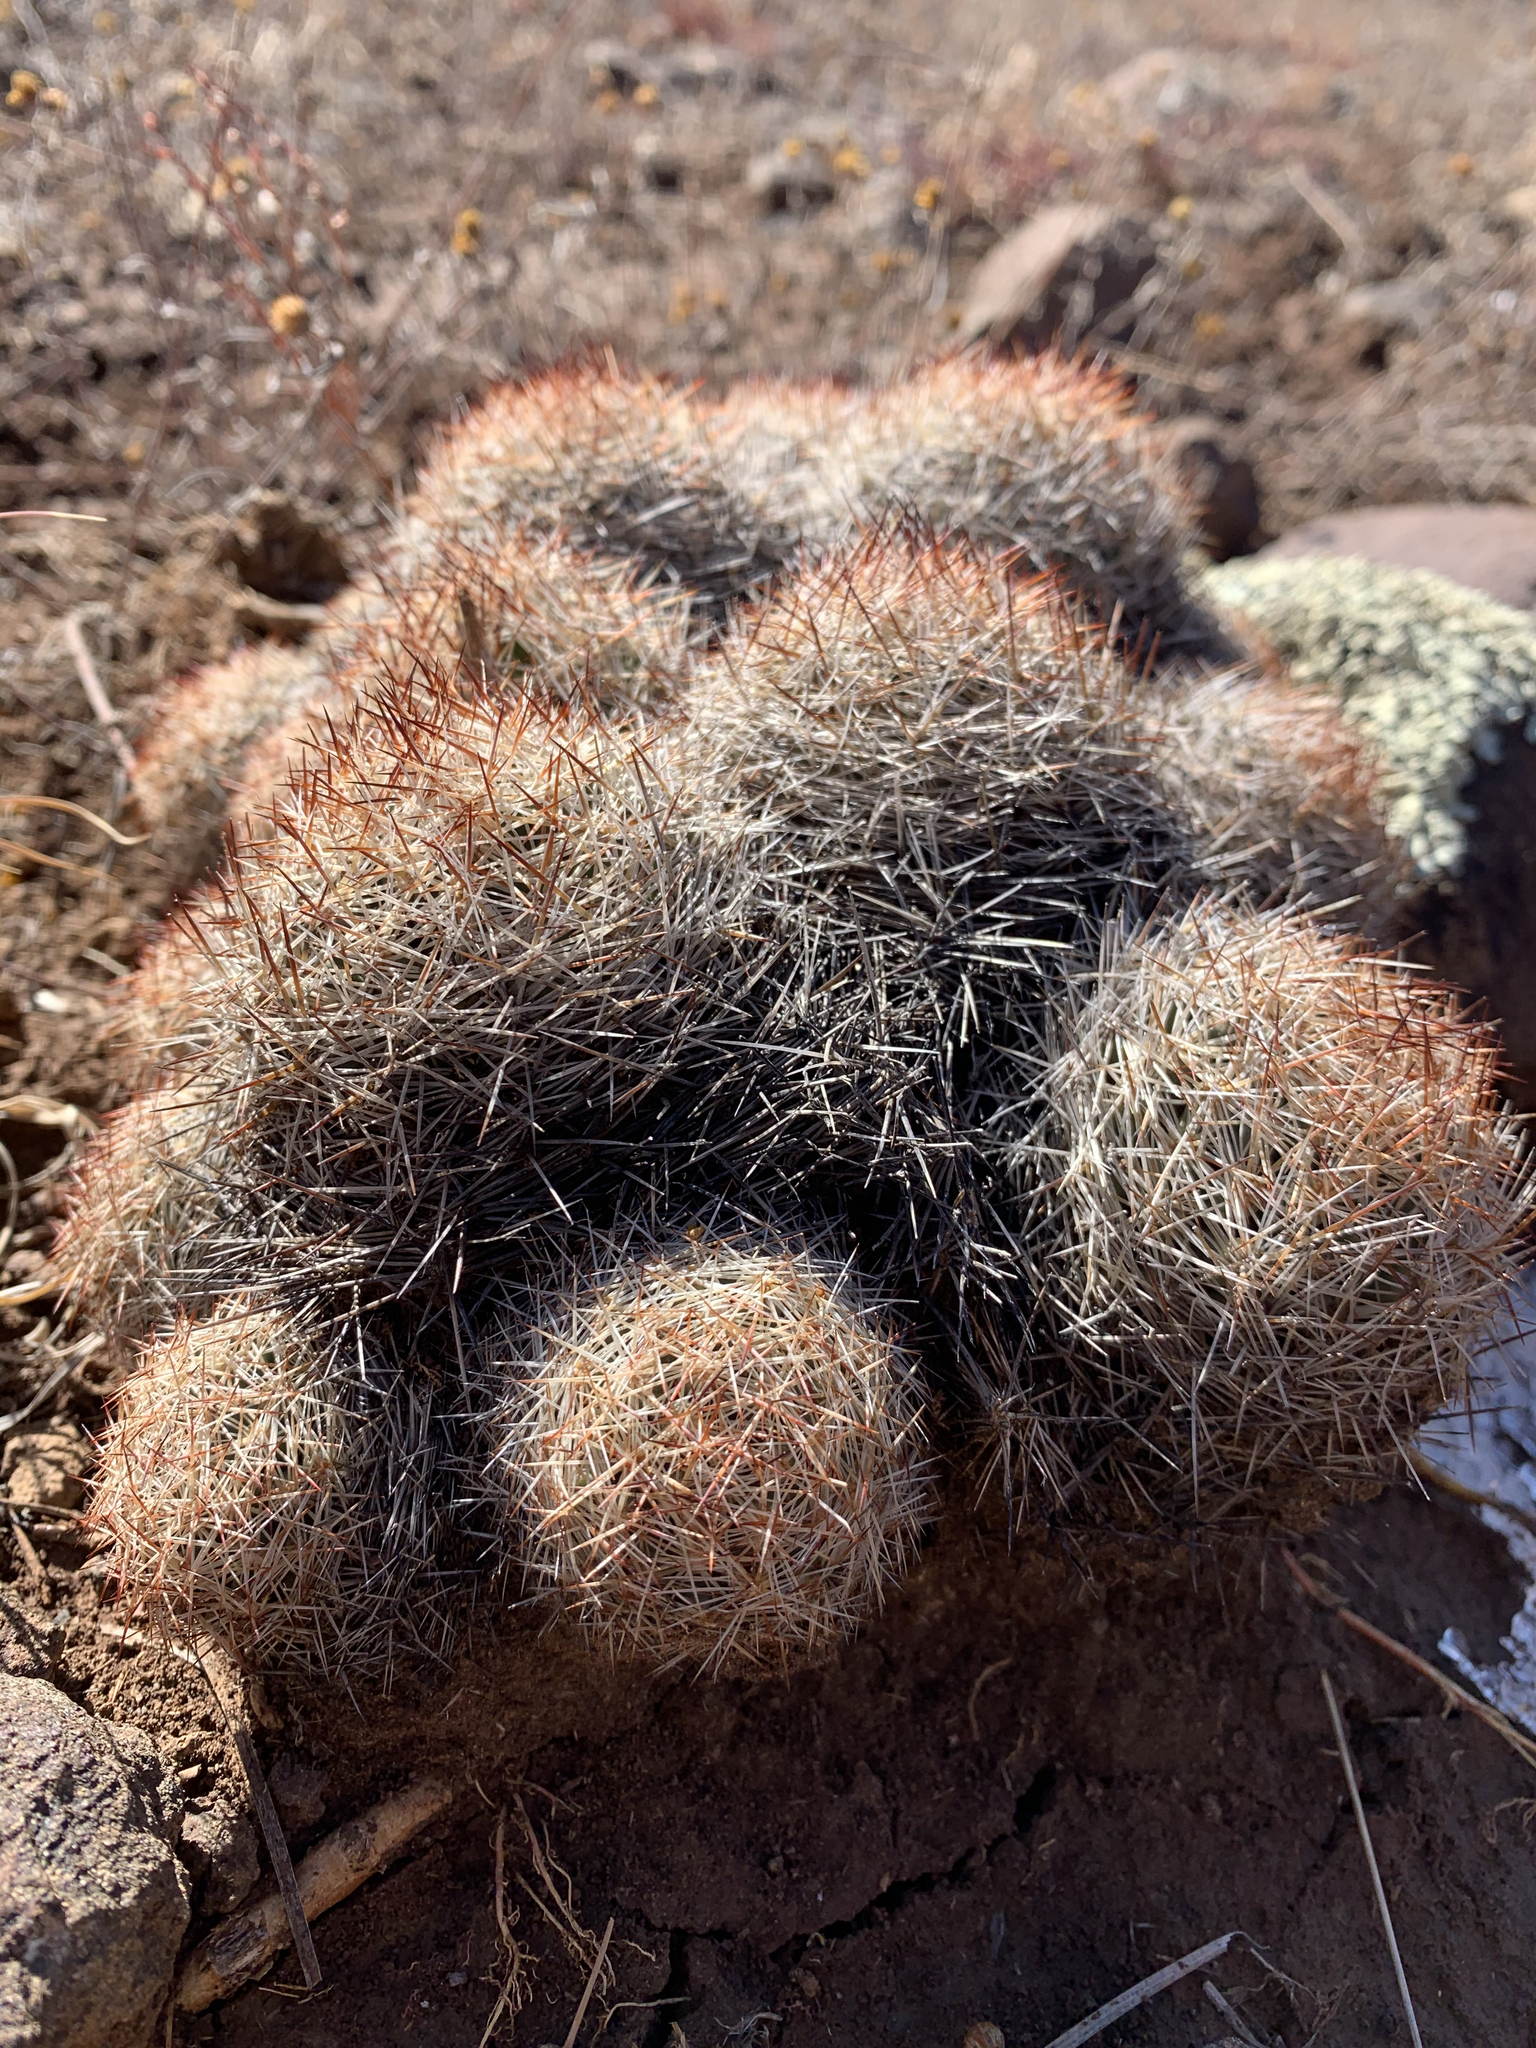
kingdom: Plantae
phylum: Tracheophyta
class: Magnoliopsida
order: Caryophyllales
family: Cactaceae
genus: Pelecyphora
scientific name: Pelecyphora vivipara
